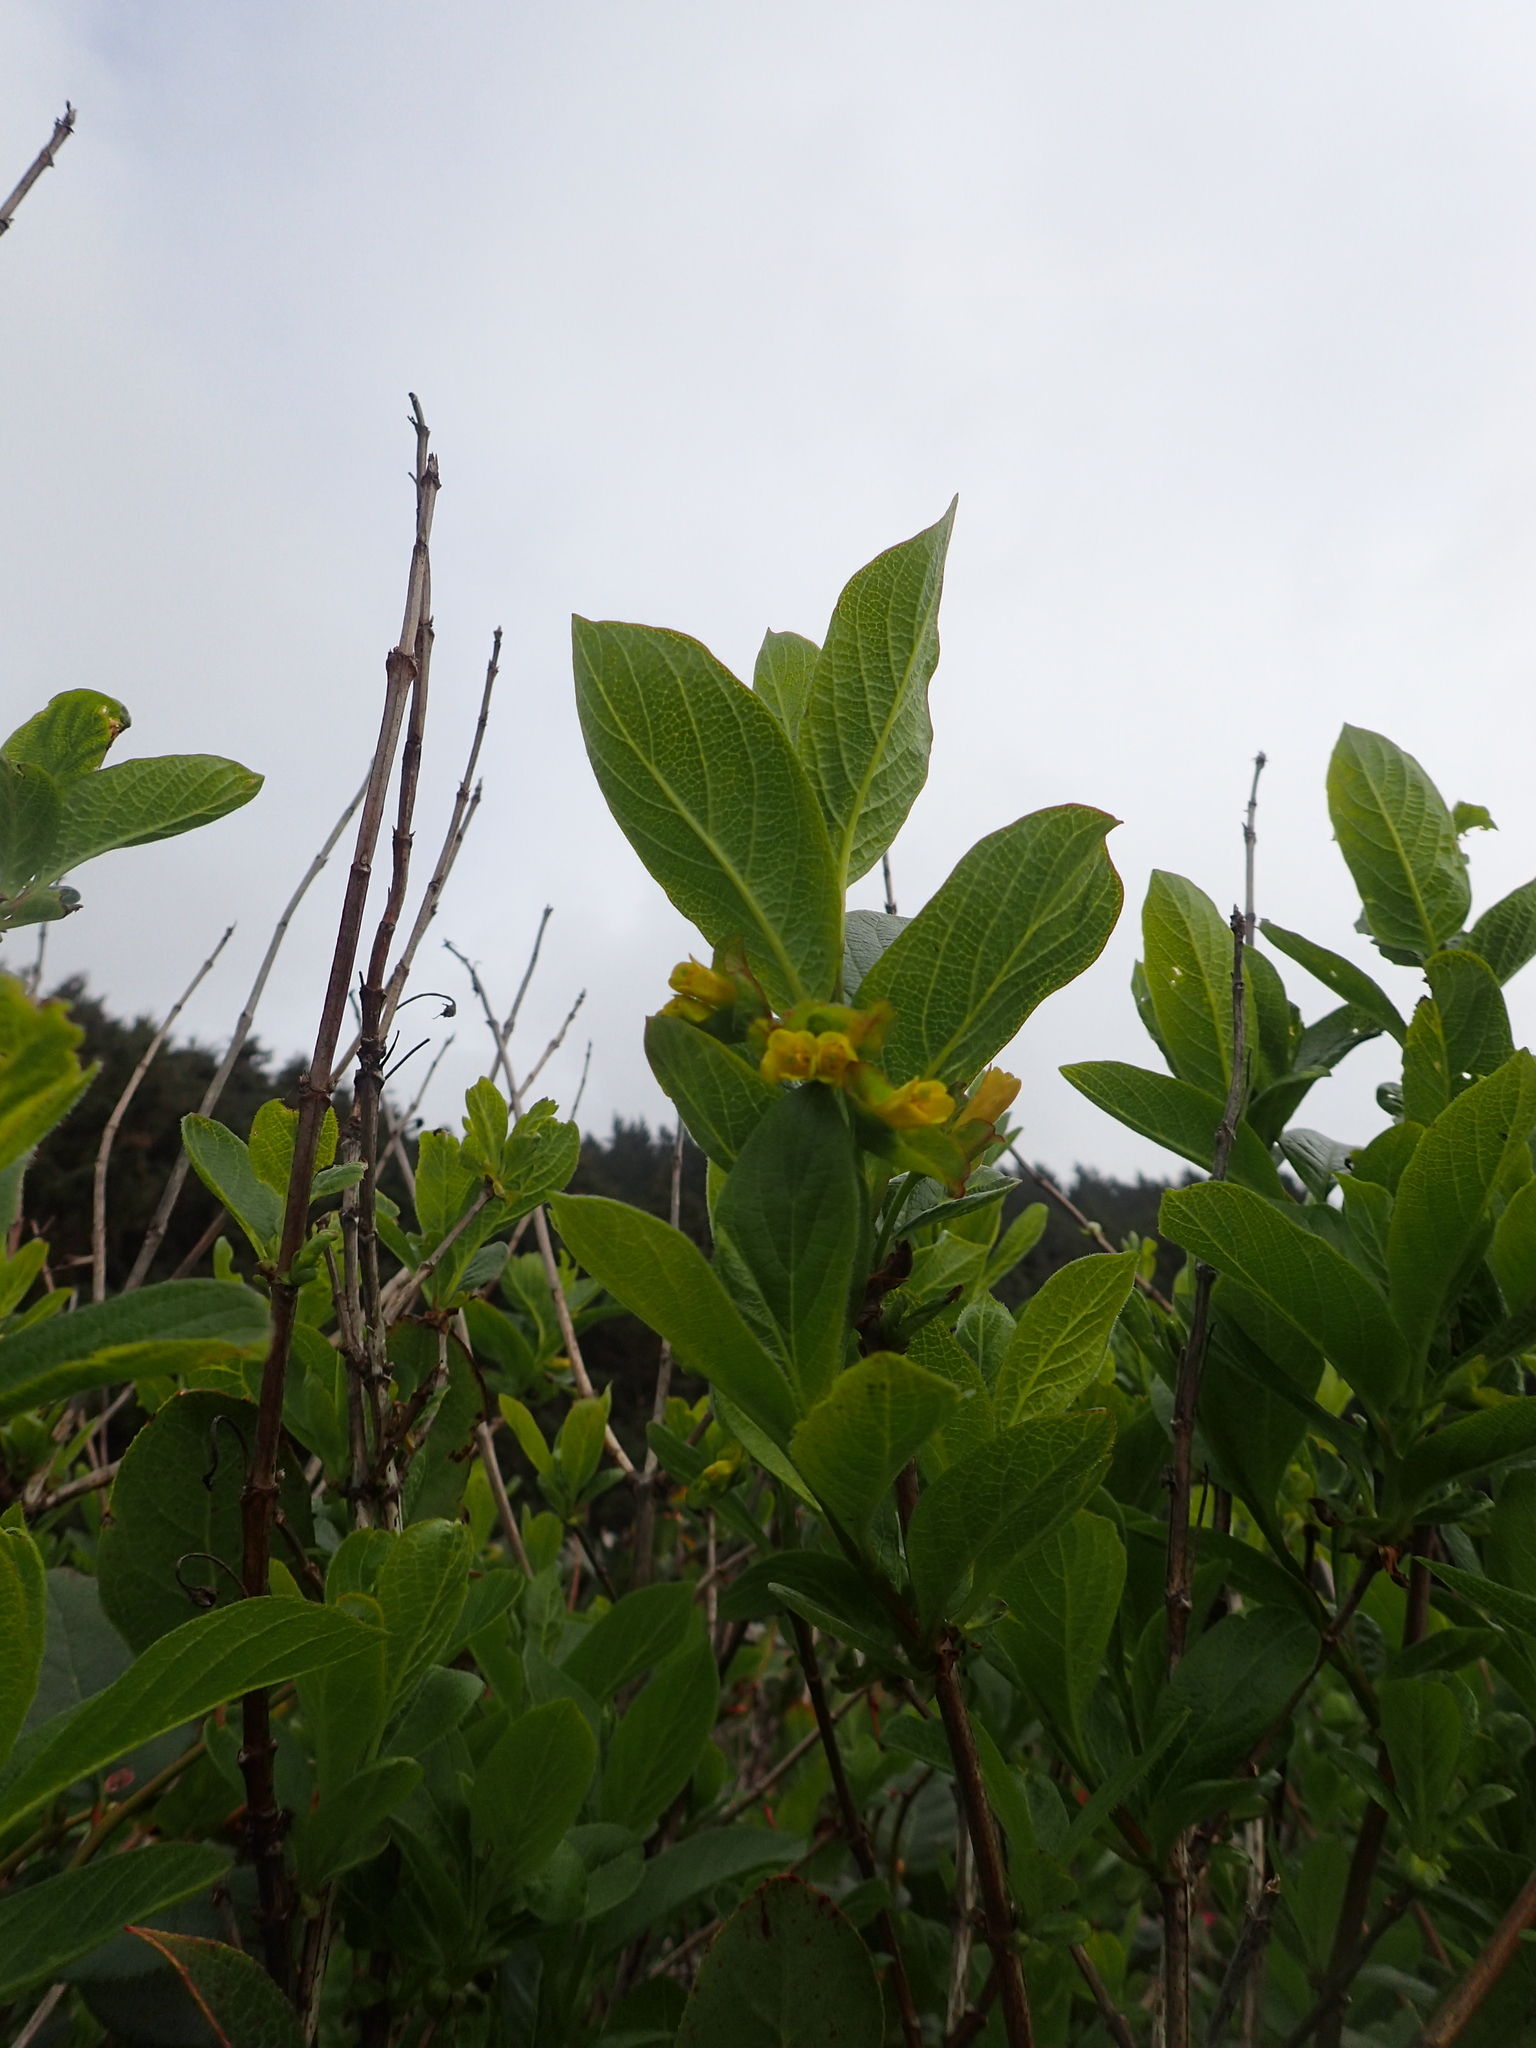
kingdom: Plantae
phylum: Tracheophyta
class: Magnoliopsida
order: Dipsacales
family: Caprifoliaceae
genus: Lonicera
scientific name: Lonicera involucrata
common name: Californian honeysuckle
